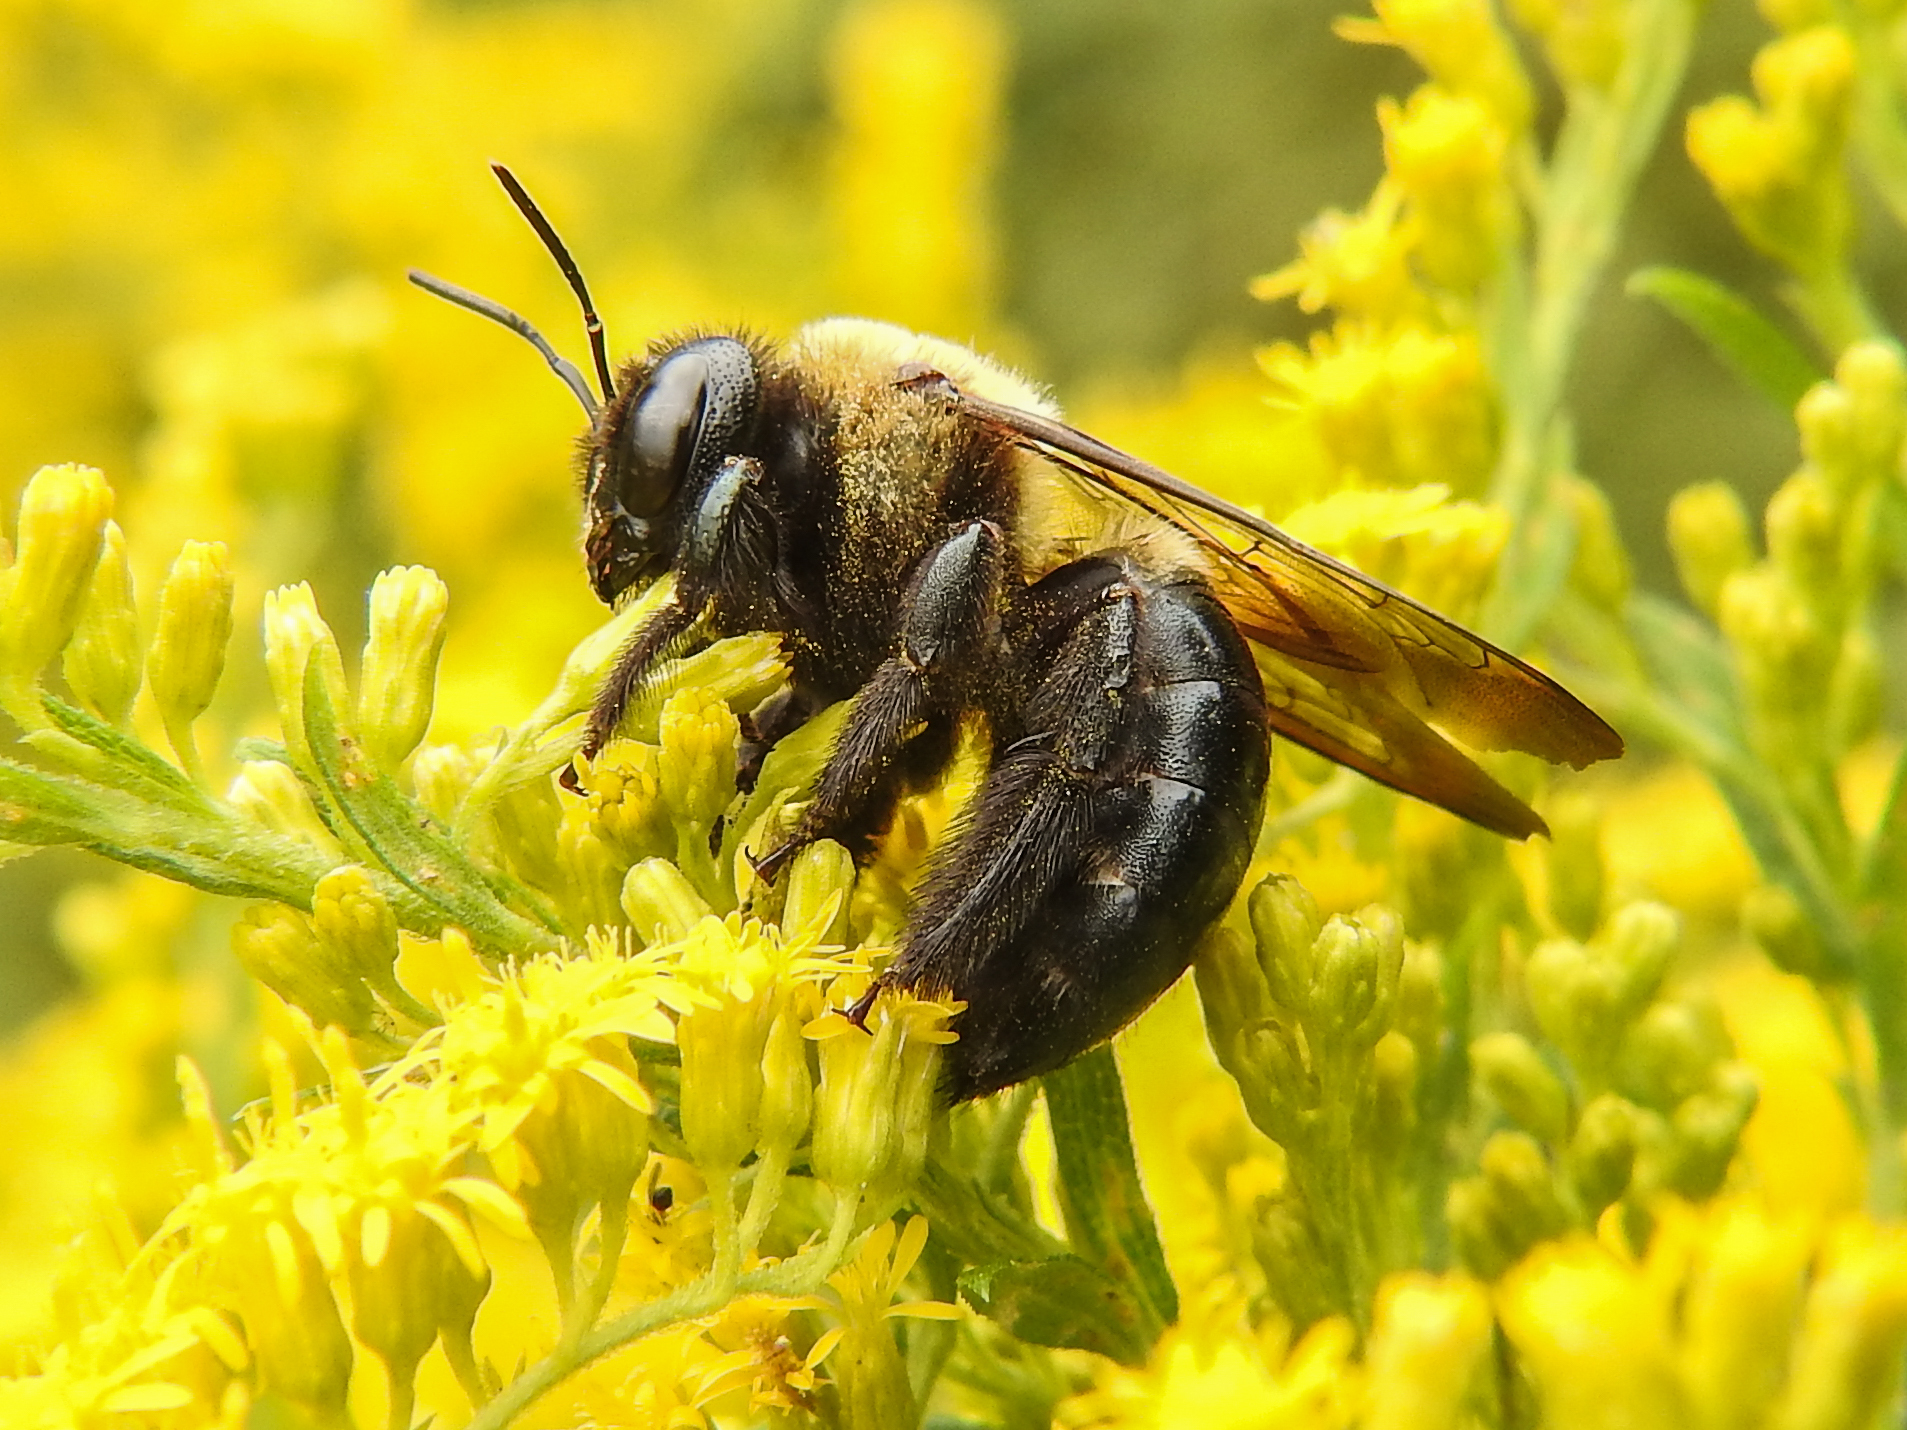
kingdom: Animalia
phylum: Arthropoda
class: Insecta
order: Hymenoptera
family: Apidae
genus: Xylocopa
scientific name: Xylocopa virginica
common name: Carpenter bee
